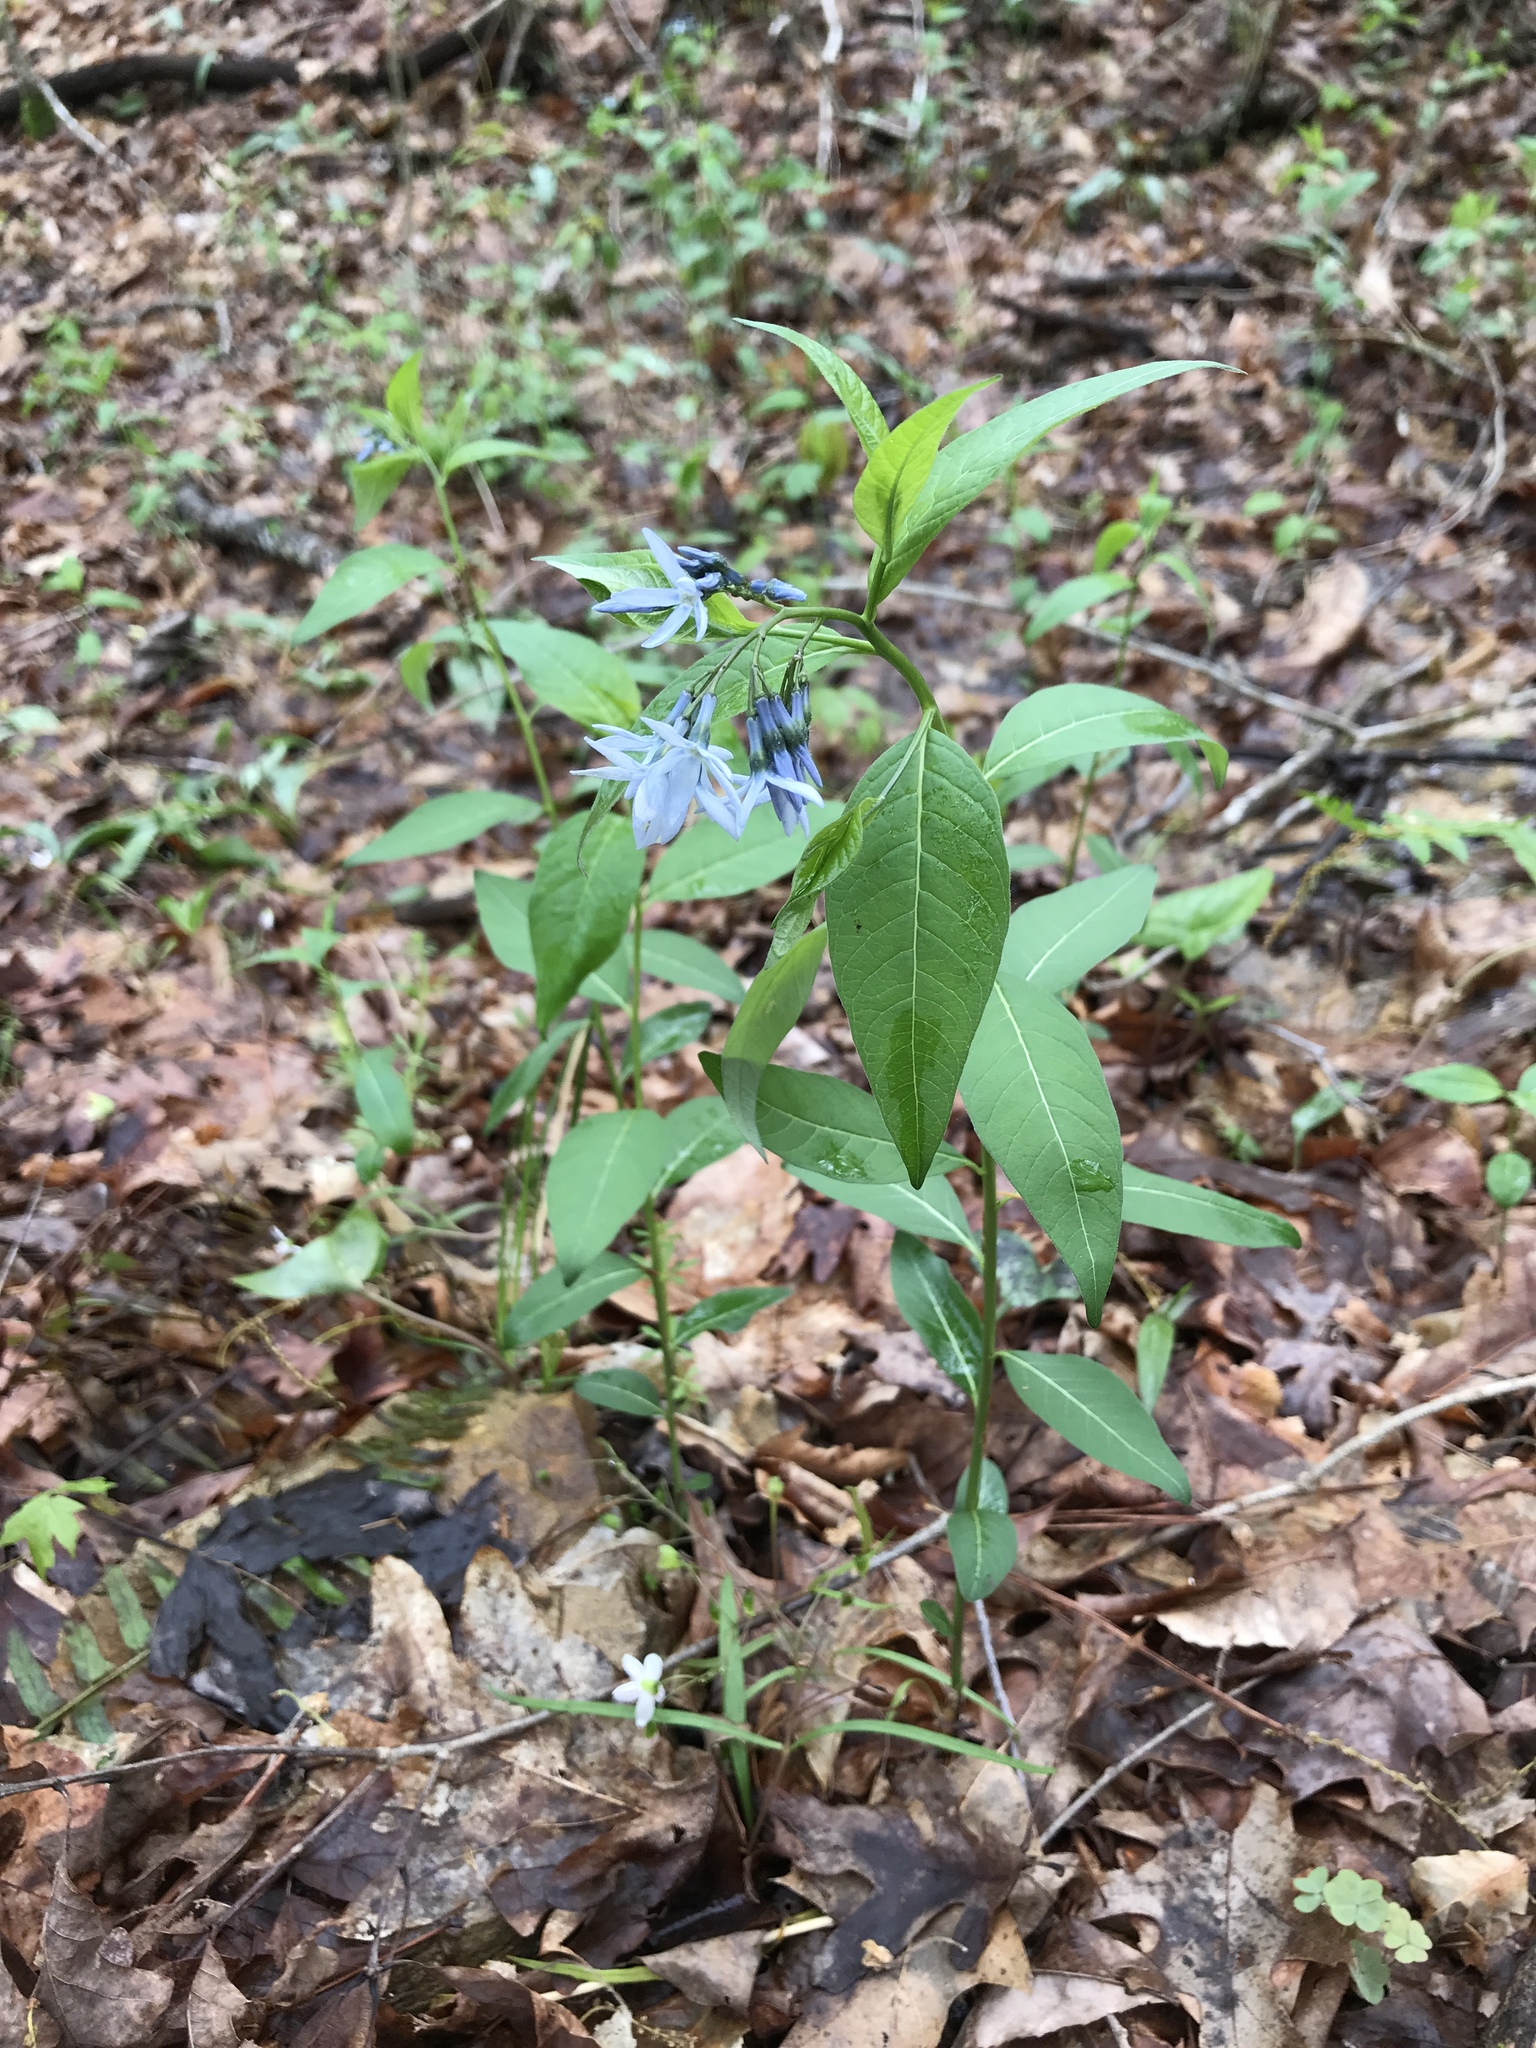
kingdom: Plantae
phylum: Tracheophyta
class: Magnoliopsida
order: Gentianales
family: Apocynaceae
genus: Amsonia
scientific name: Amsonia tabernaemontana
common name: Texas-star
